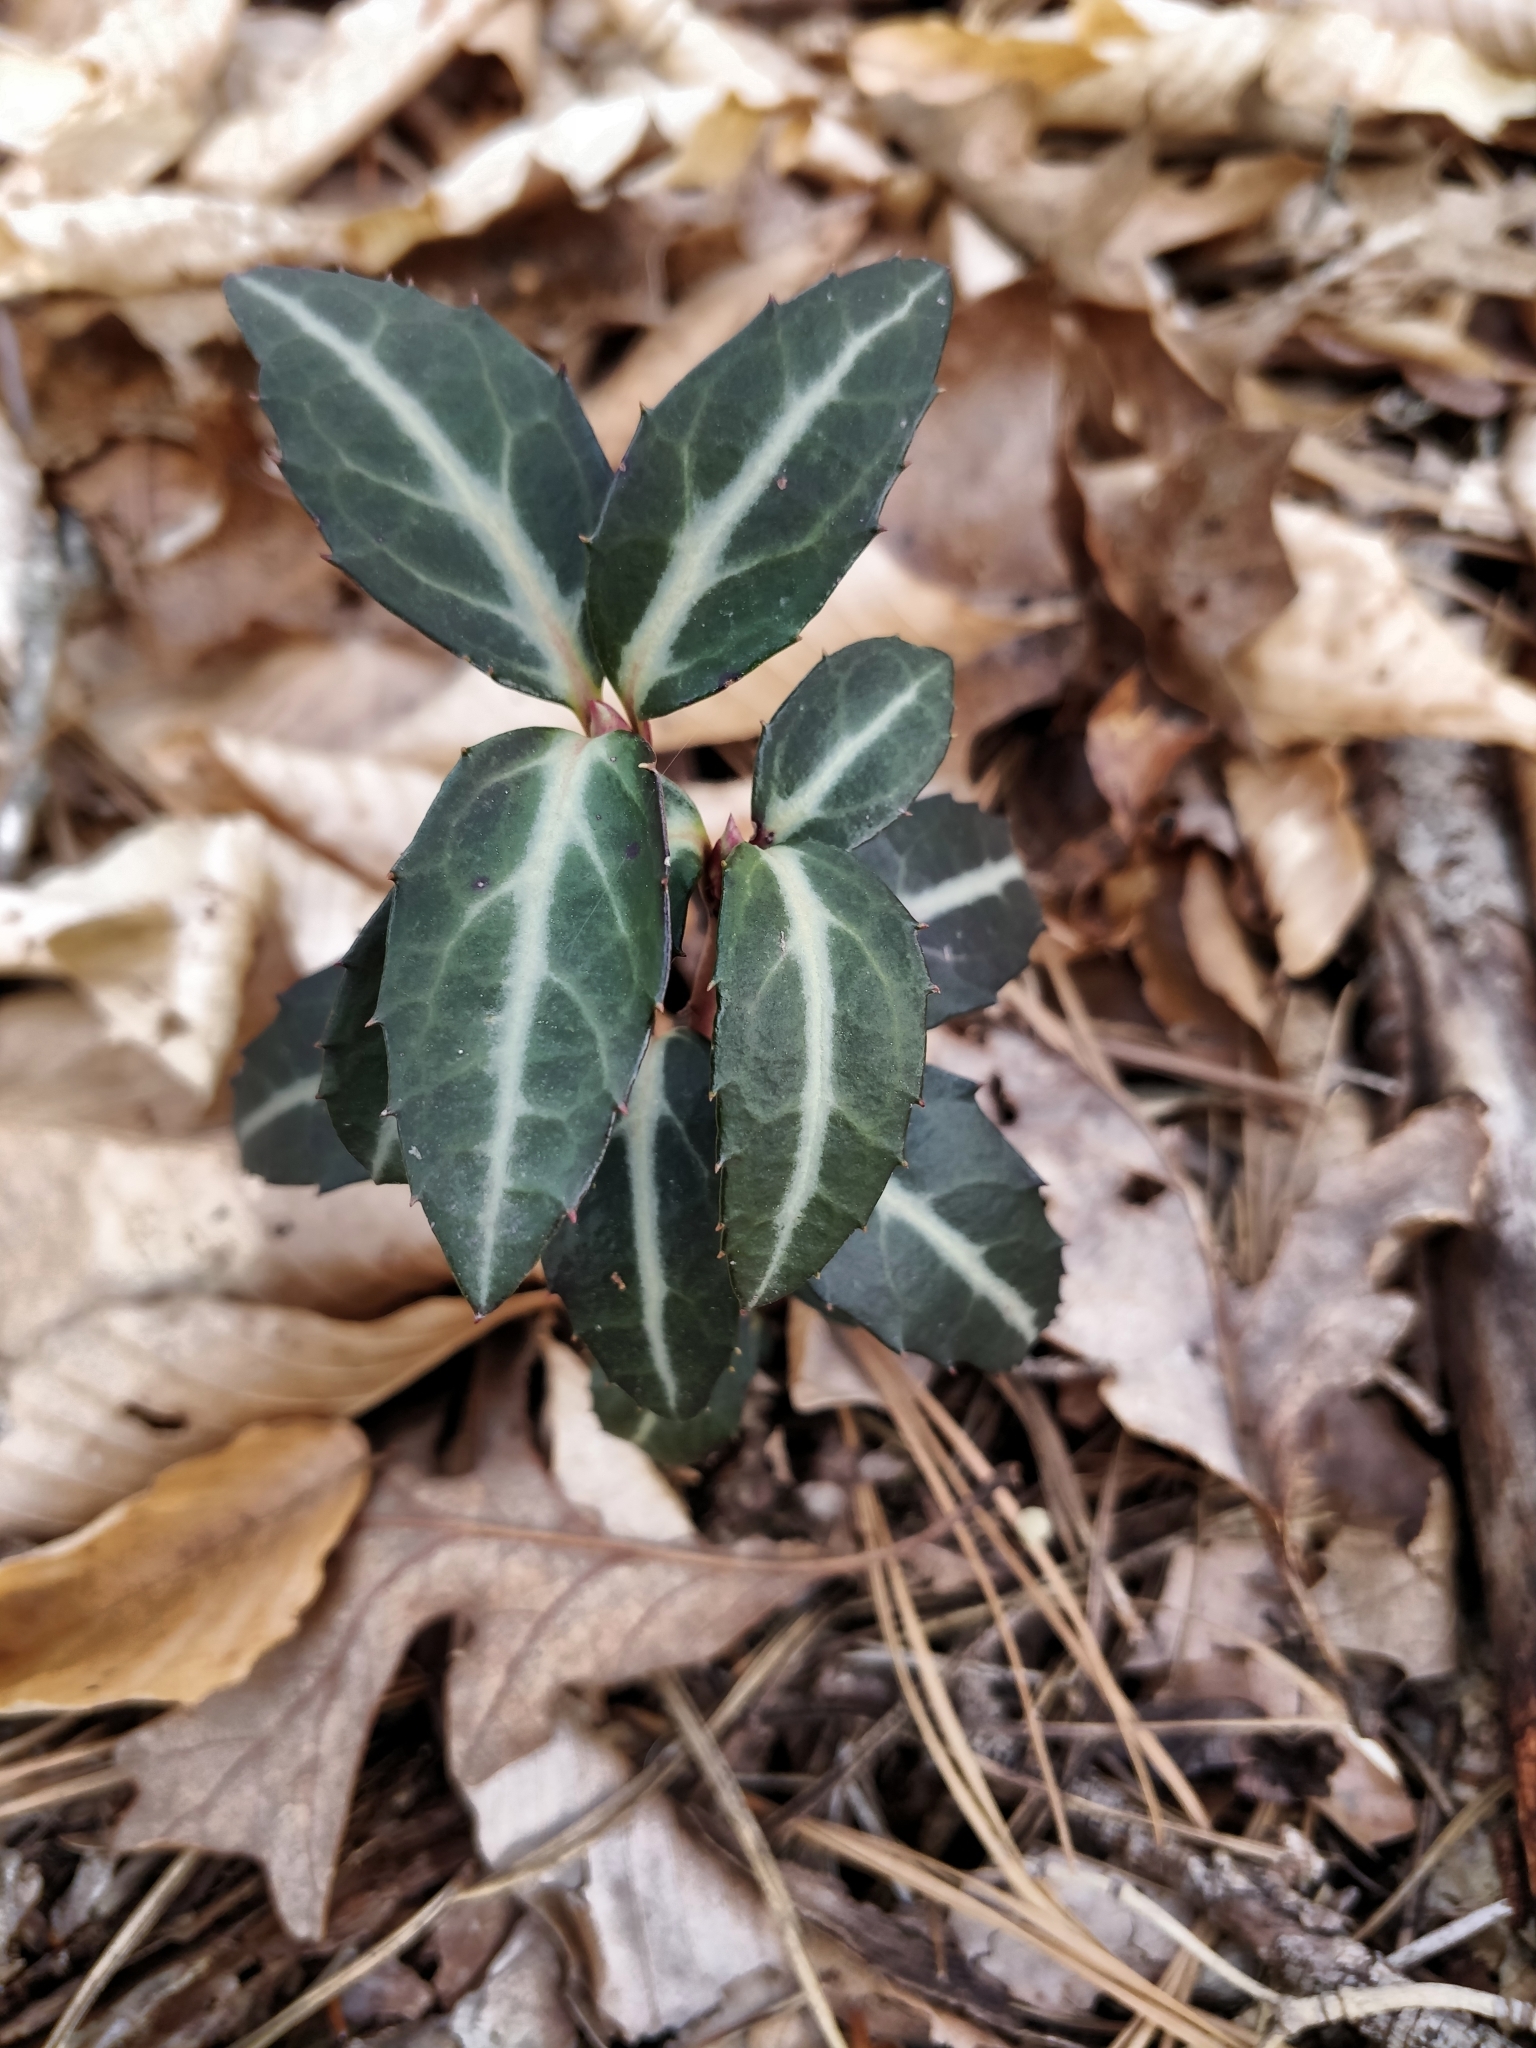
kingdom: Plantae
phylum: Tracheophyta
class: Magnoliopsida
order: Ericales
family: Ericaceae
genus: Chimaphila
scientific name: Chimaphila maculata
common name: Spotted pipsissewa
